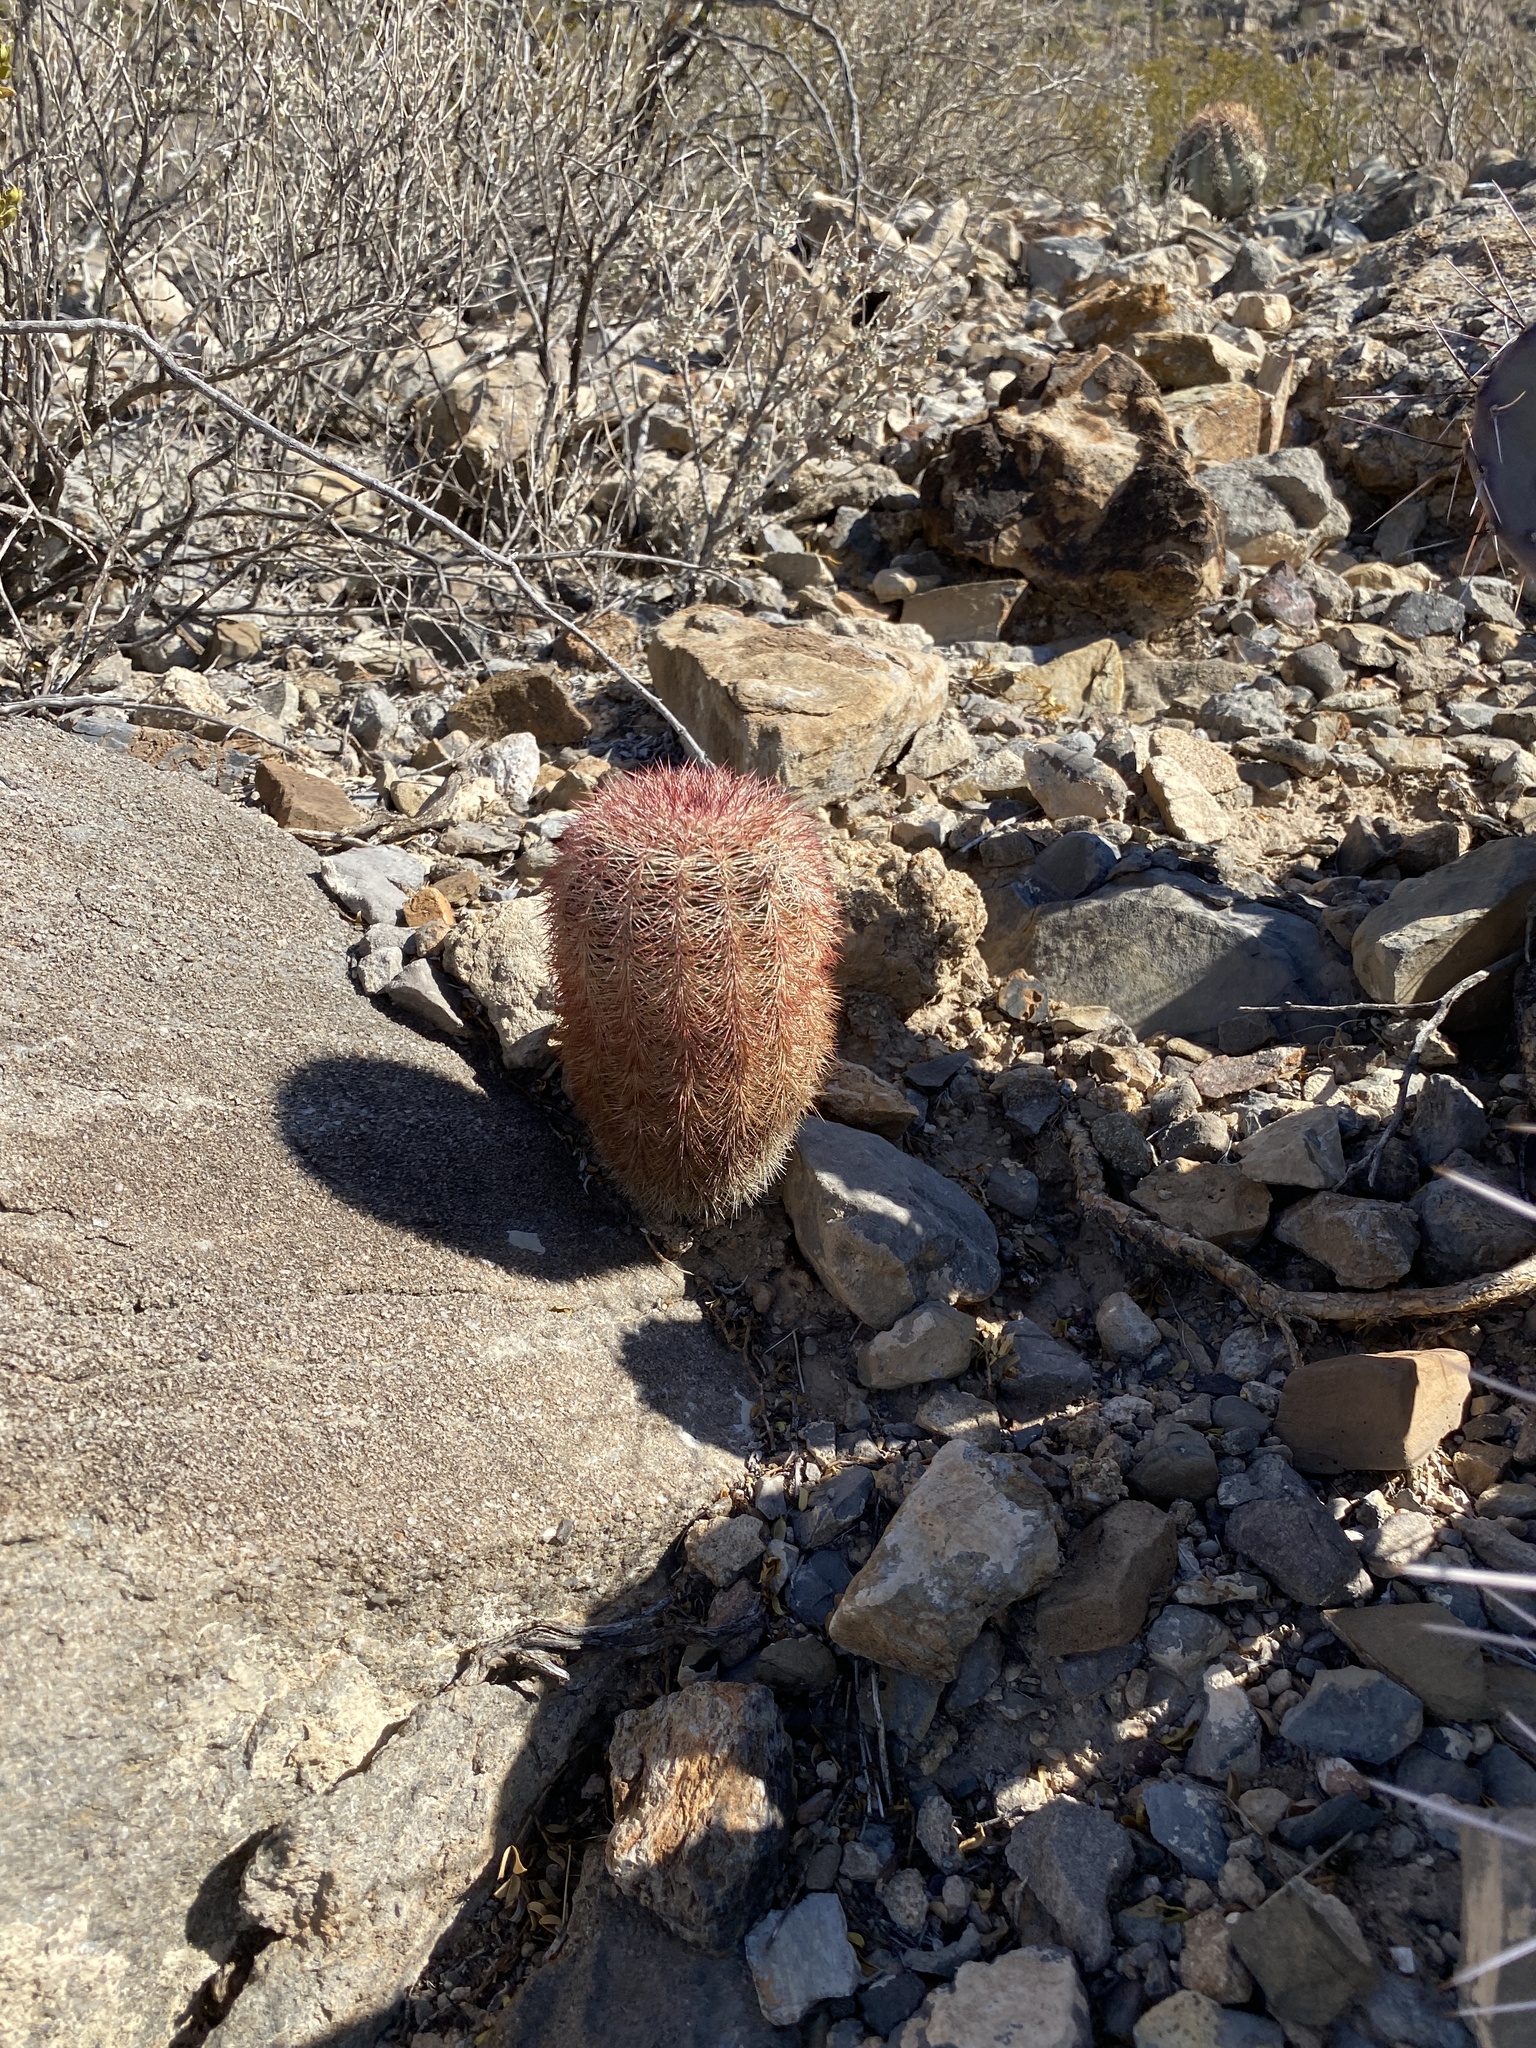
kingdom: Plantae
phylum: Tracheophyta
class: Magnoliopsida
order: Caryophyllales
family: Cactaceae
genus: Echinocereus
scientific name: Echinocereus dasyacanthus
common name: Spiny hedgehog cactus
